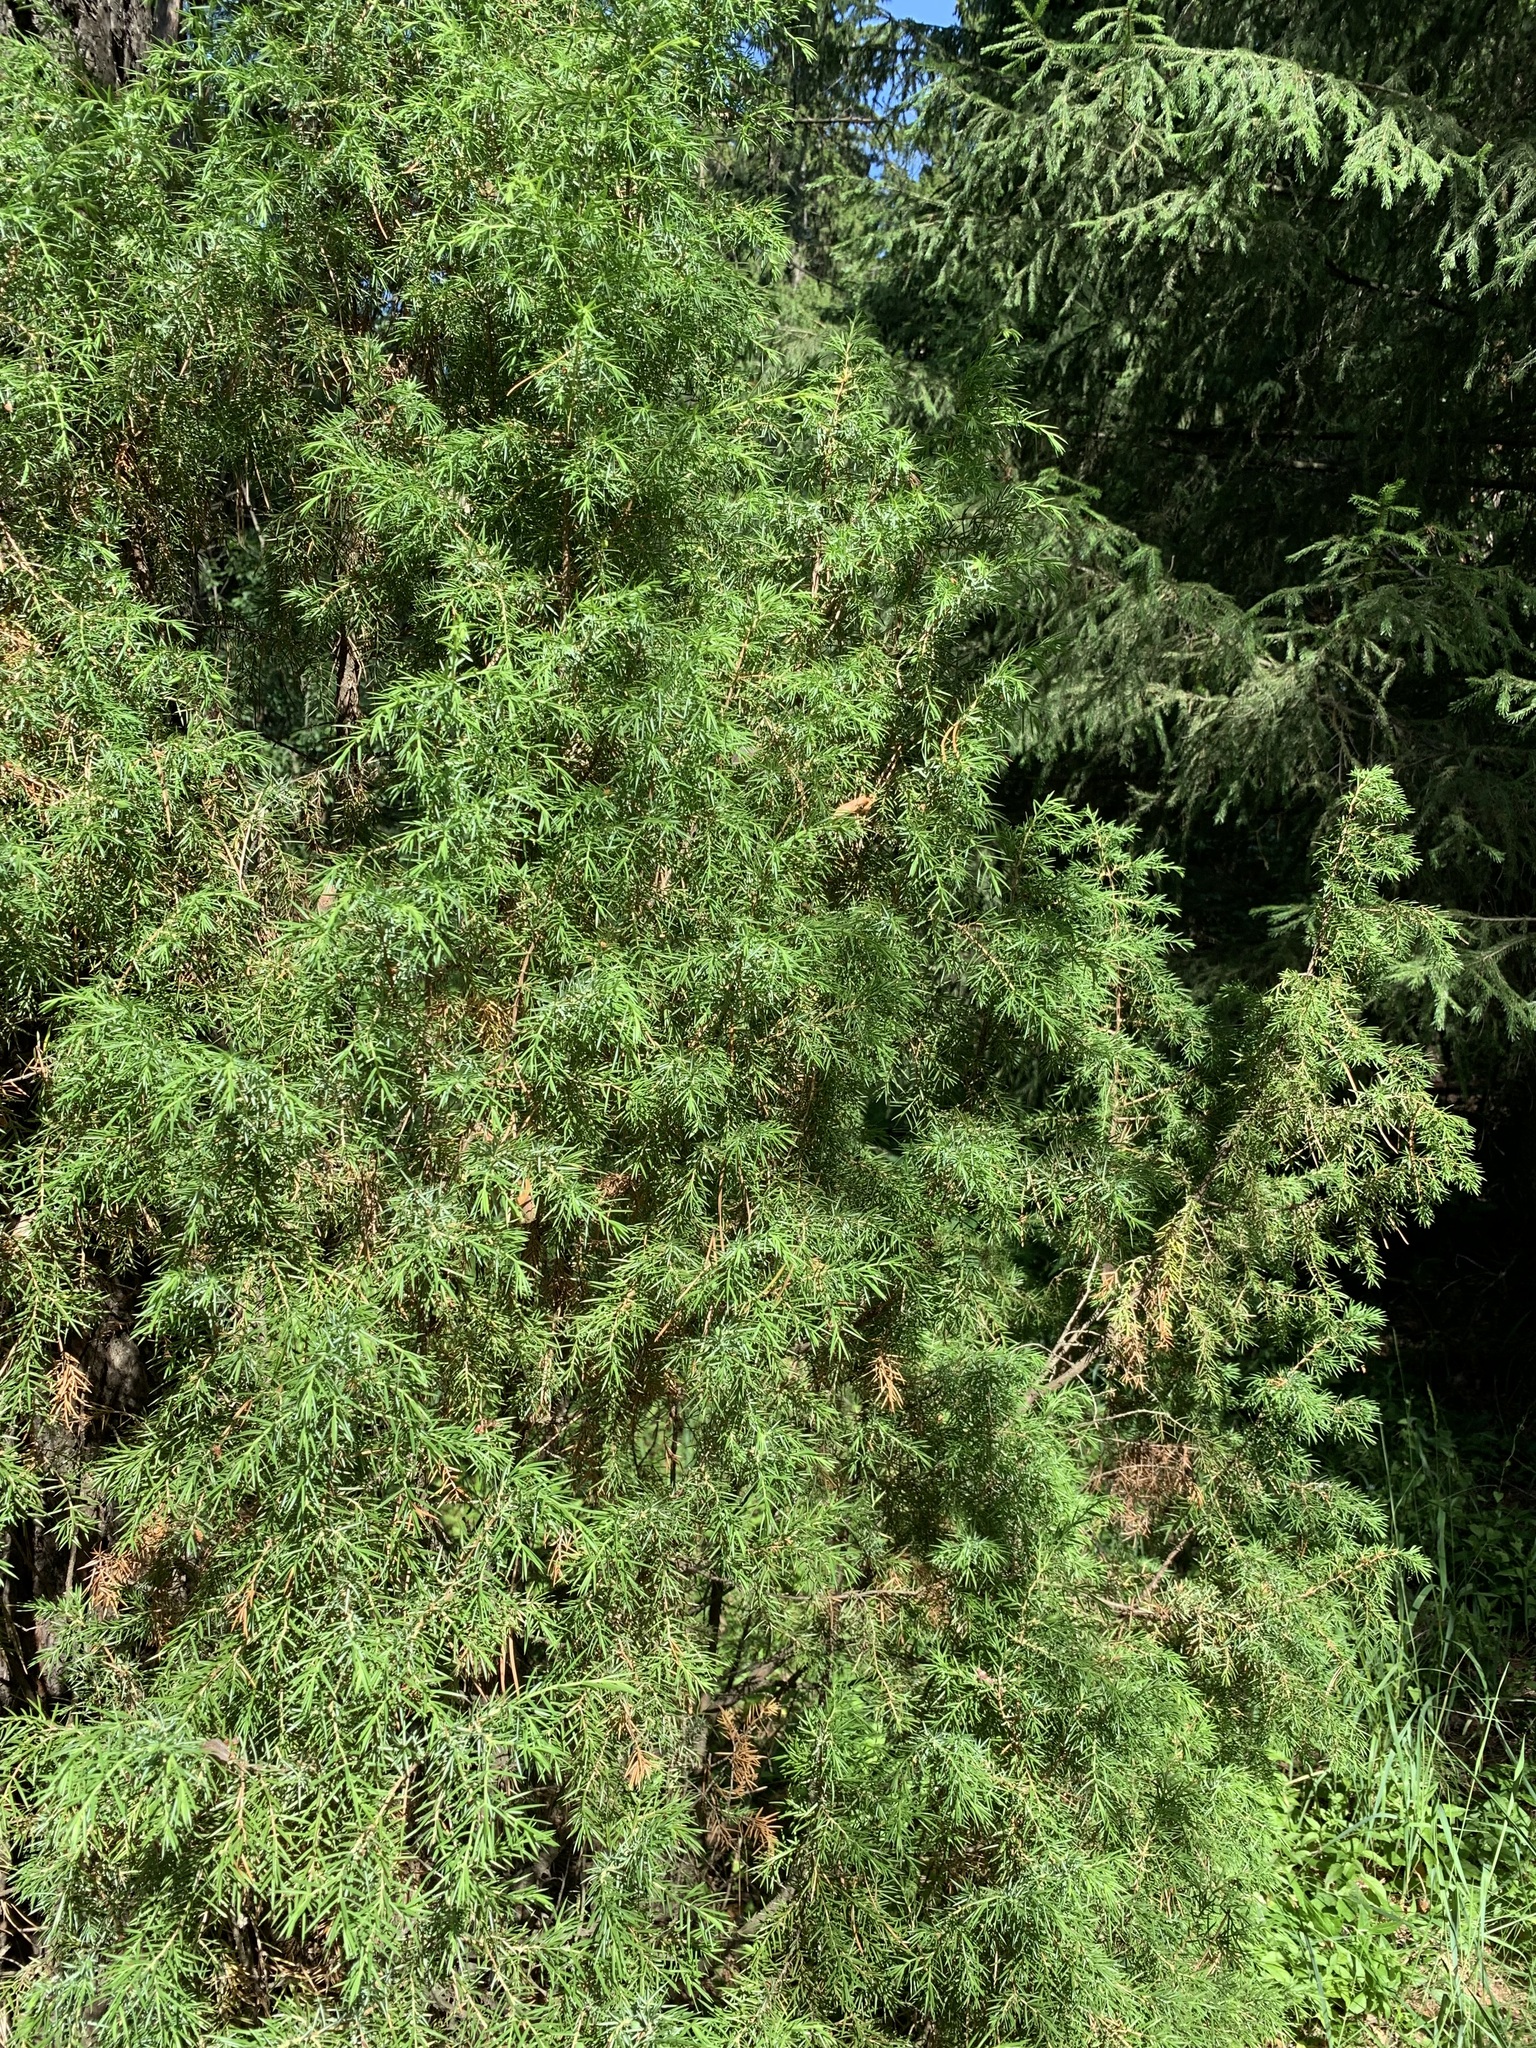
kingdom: Plantae
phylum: Tracheophyta
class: Pinopsida
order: Pinales
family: Cupressaceae
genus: Juniperus
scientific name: Juniperus communis
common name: Common juniper
